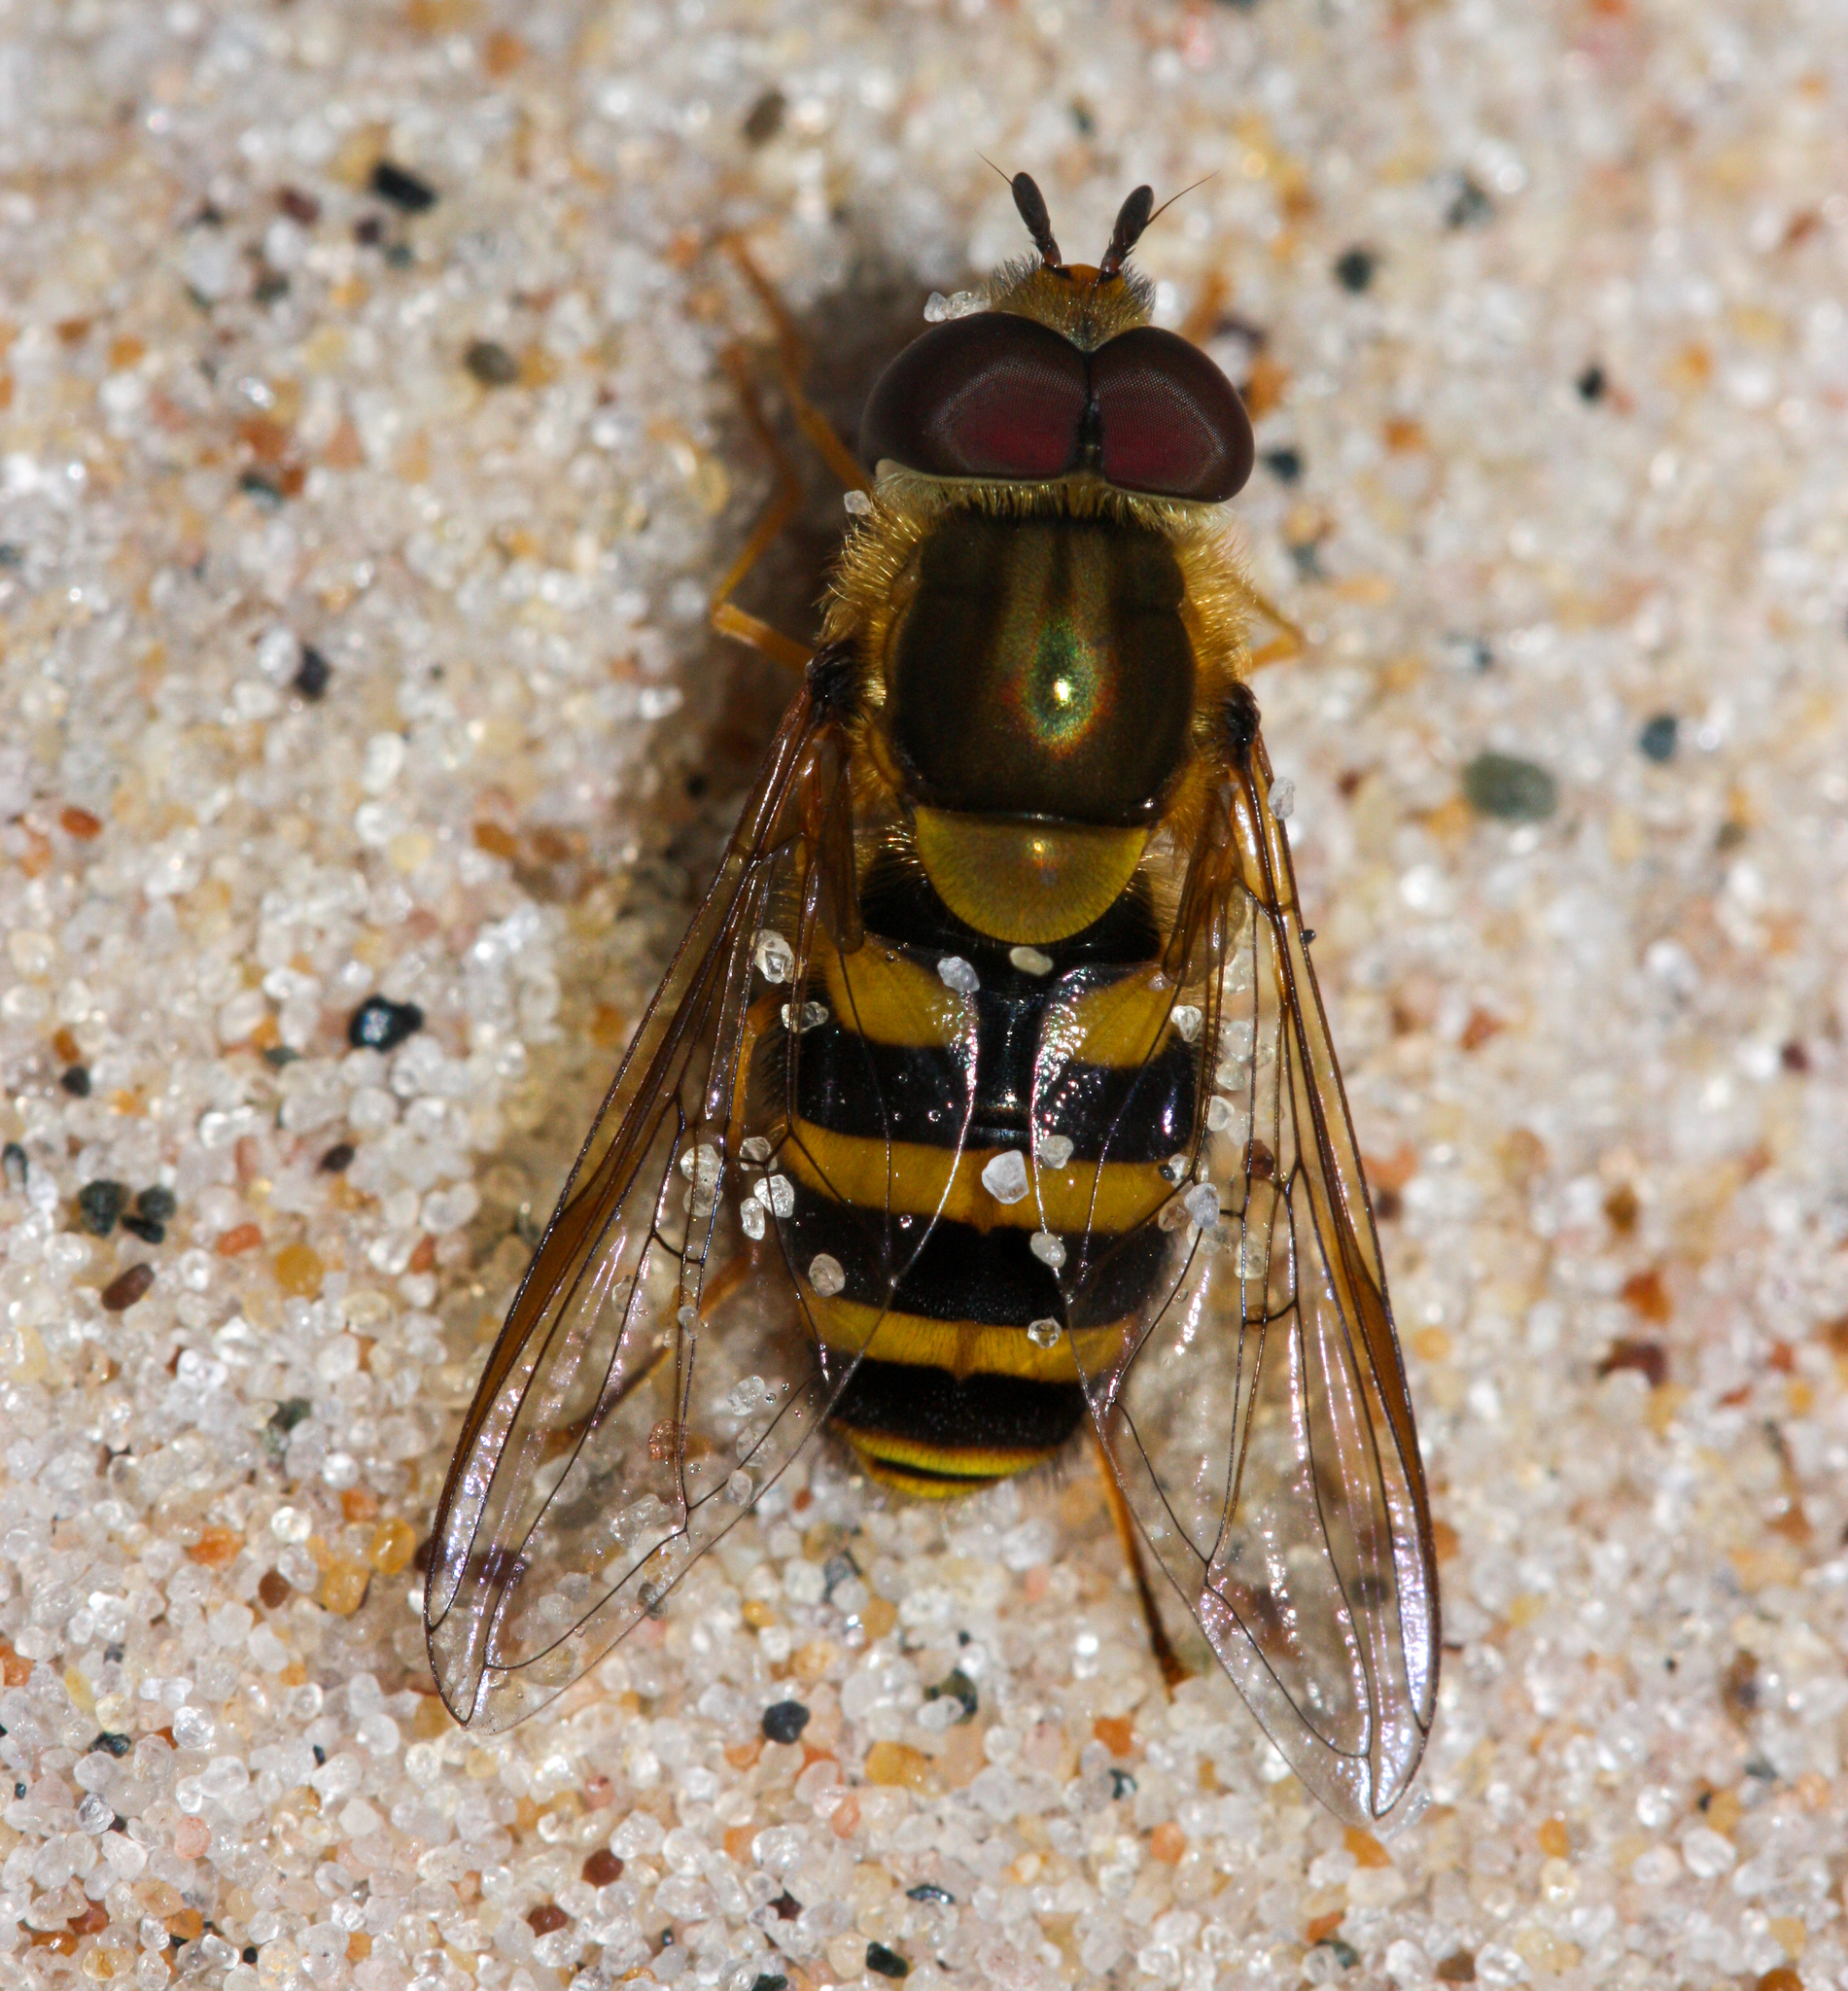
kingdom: Animalia
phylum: Arthropoda
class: Insecta
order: Diptera
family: Syrphidae
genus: Syrphus
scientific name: Syrphus knabi
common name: Eastern flower fly
